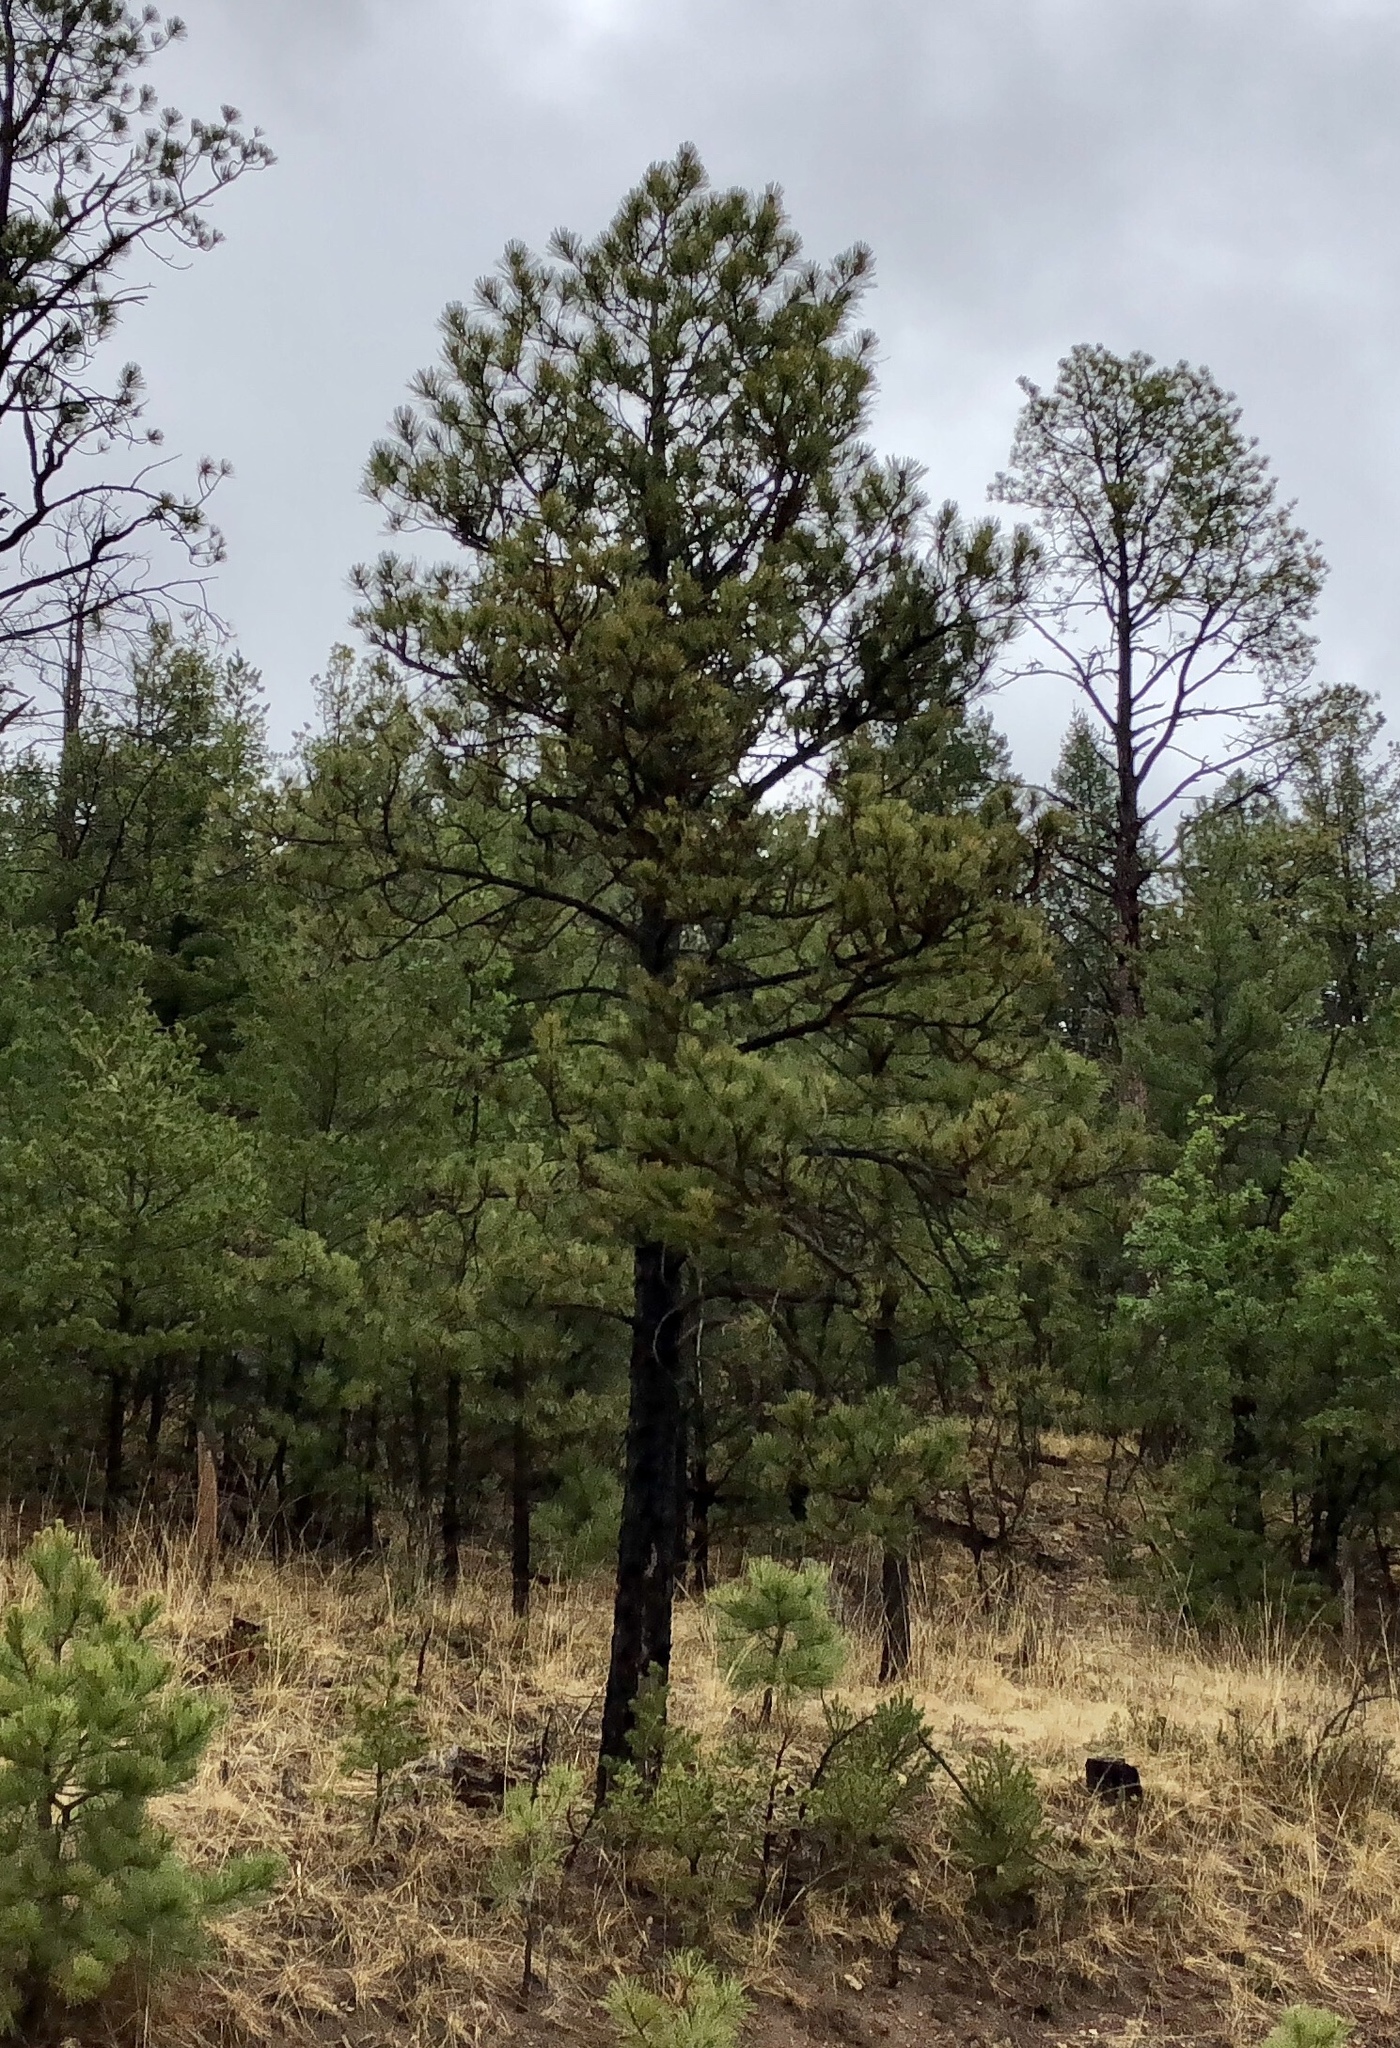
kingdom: Plantae
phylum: Tracheophyta
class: Pinopsida
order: Pinales
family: Pinaceae
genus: Pinus
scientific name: Pinus ponderosa
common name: Western yellow-pine
